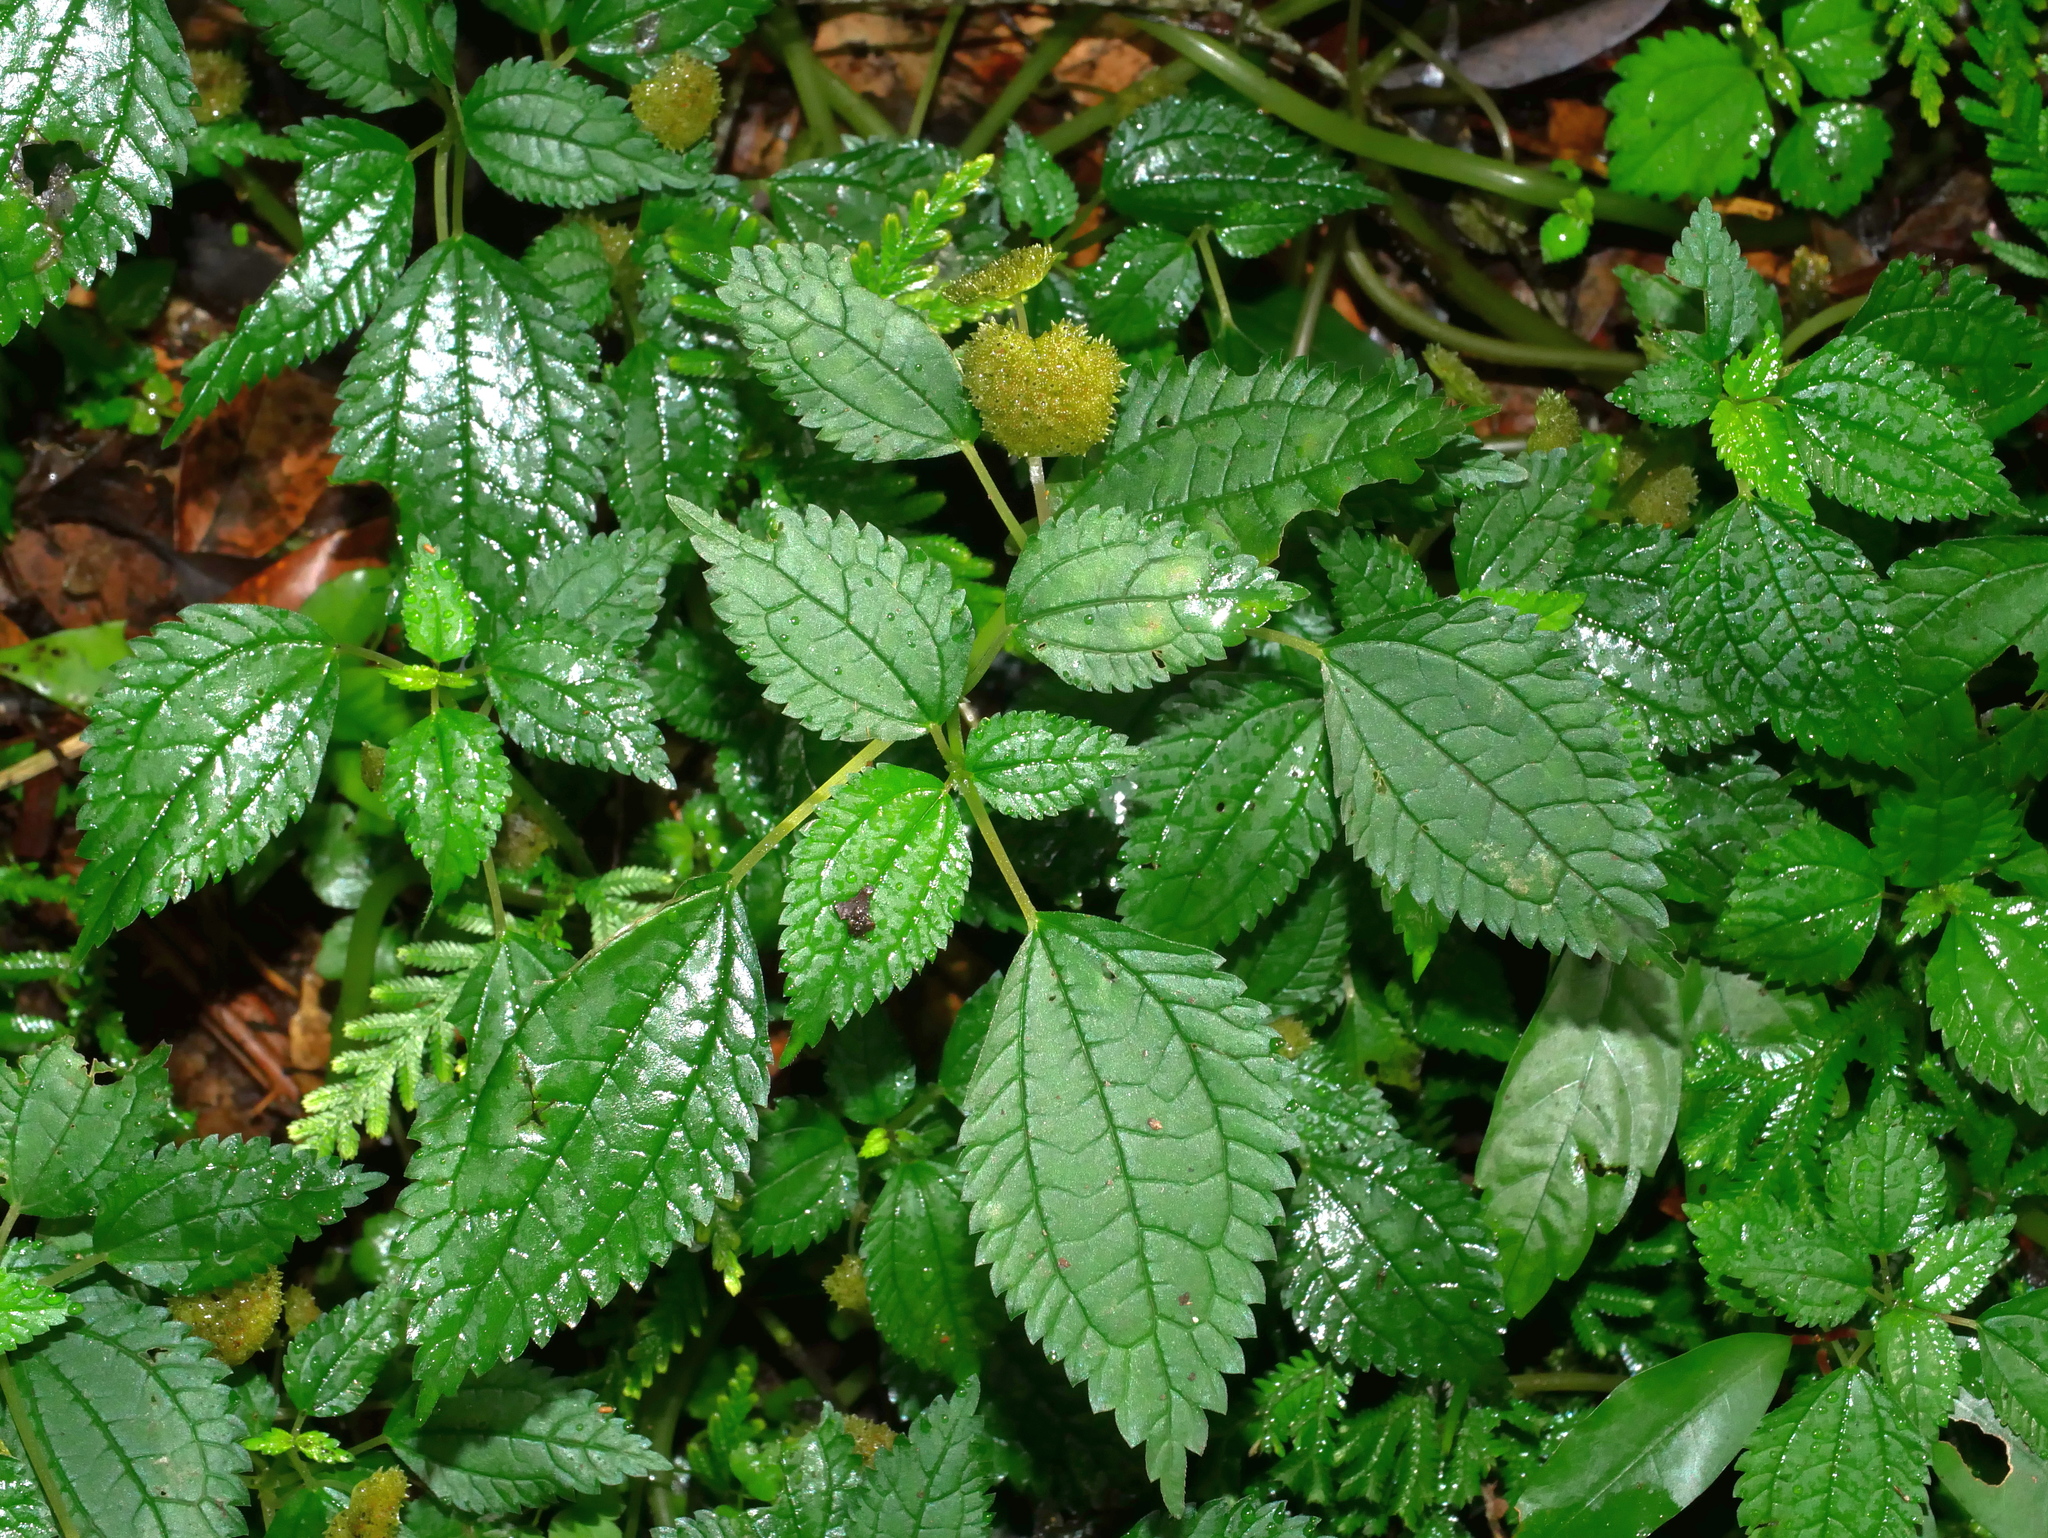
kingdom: Plantae
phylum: Tracheophyta
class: Magnoliopsida
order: Rosales
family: Urticaceae
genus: Lecanthus
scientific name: Lecanthus peduncularis
